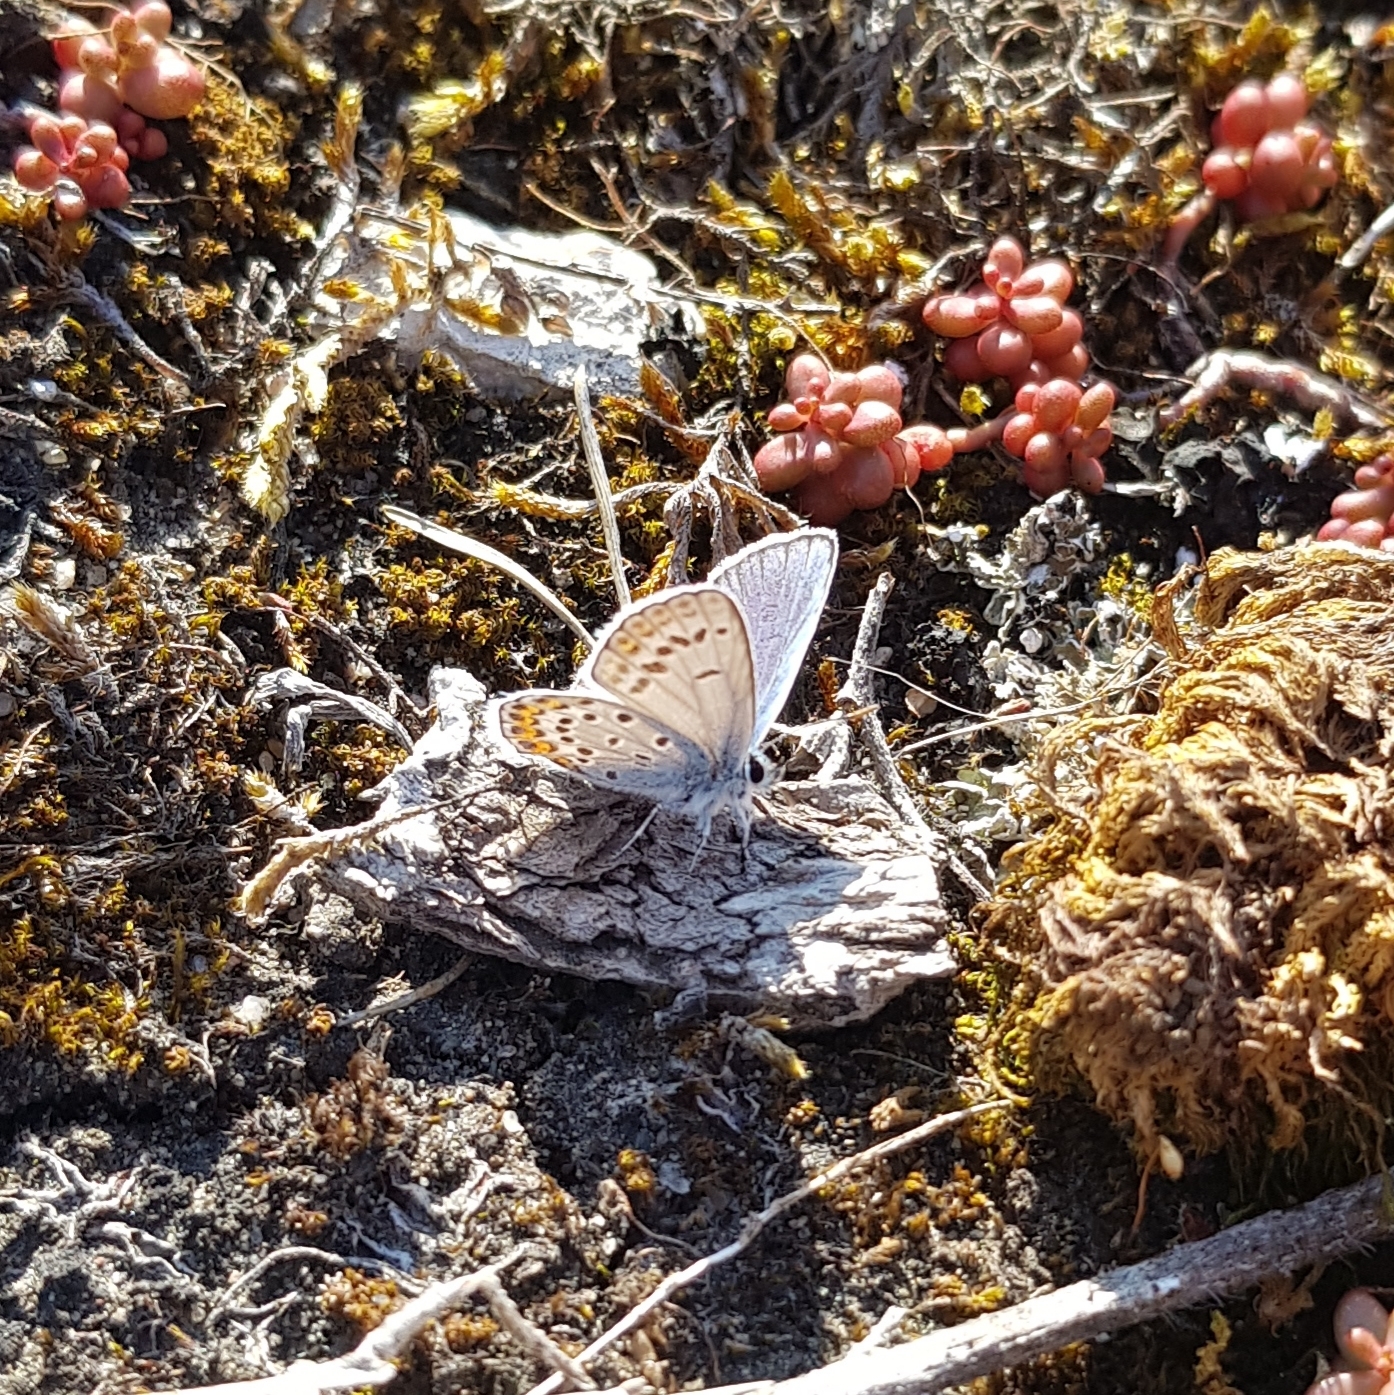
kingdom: Animalia
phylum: Arthropoda
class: Insecta
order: Lepidoptera
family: Lycaenidae
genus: Plebejus
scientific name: Plebejus argus
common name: Silver-studded blue
